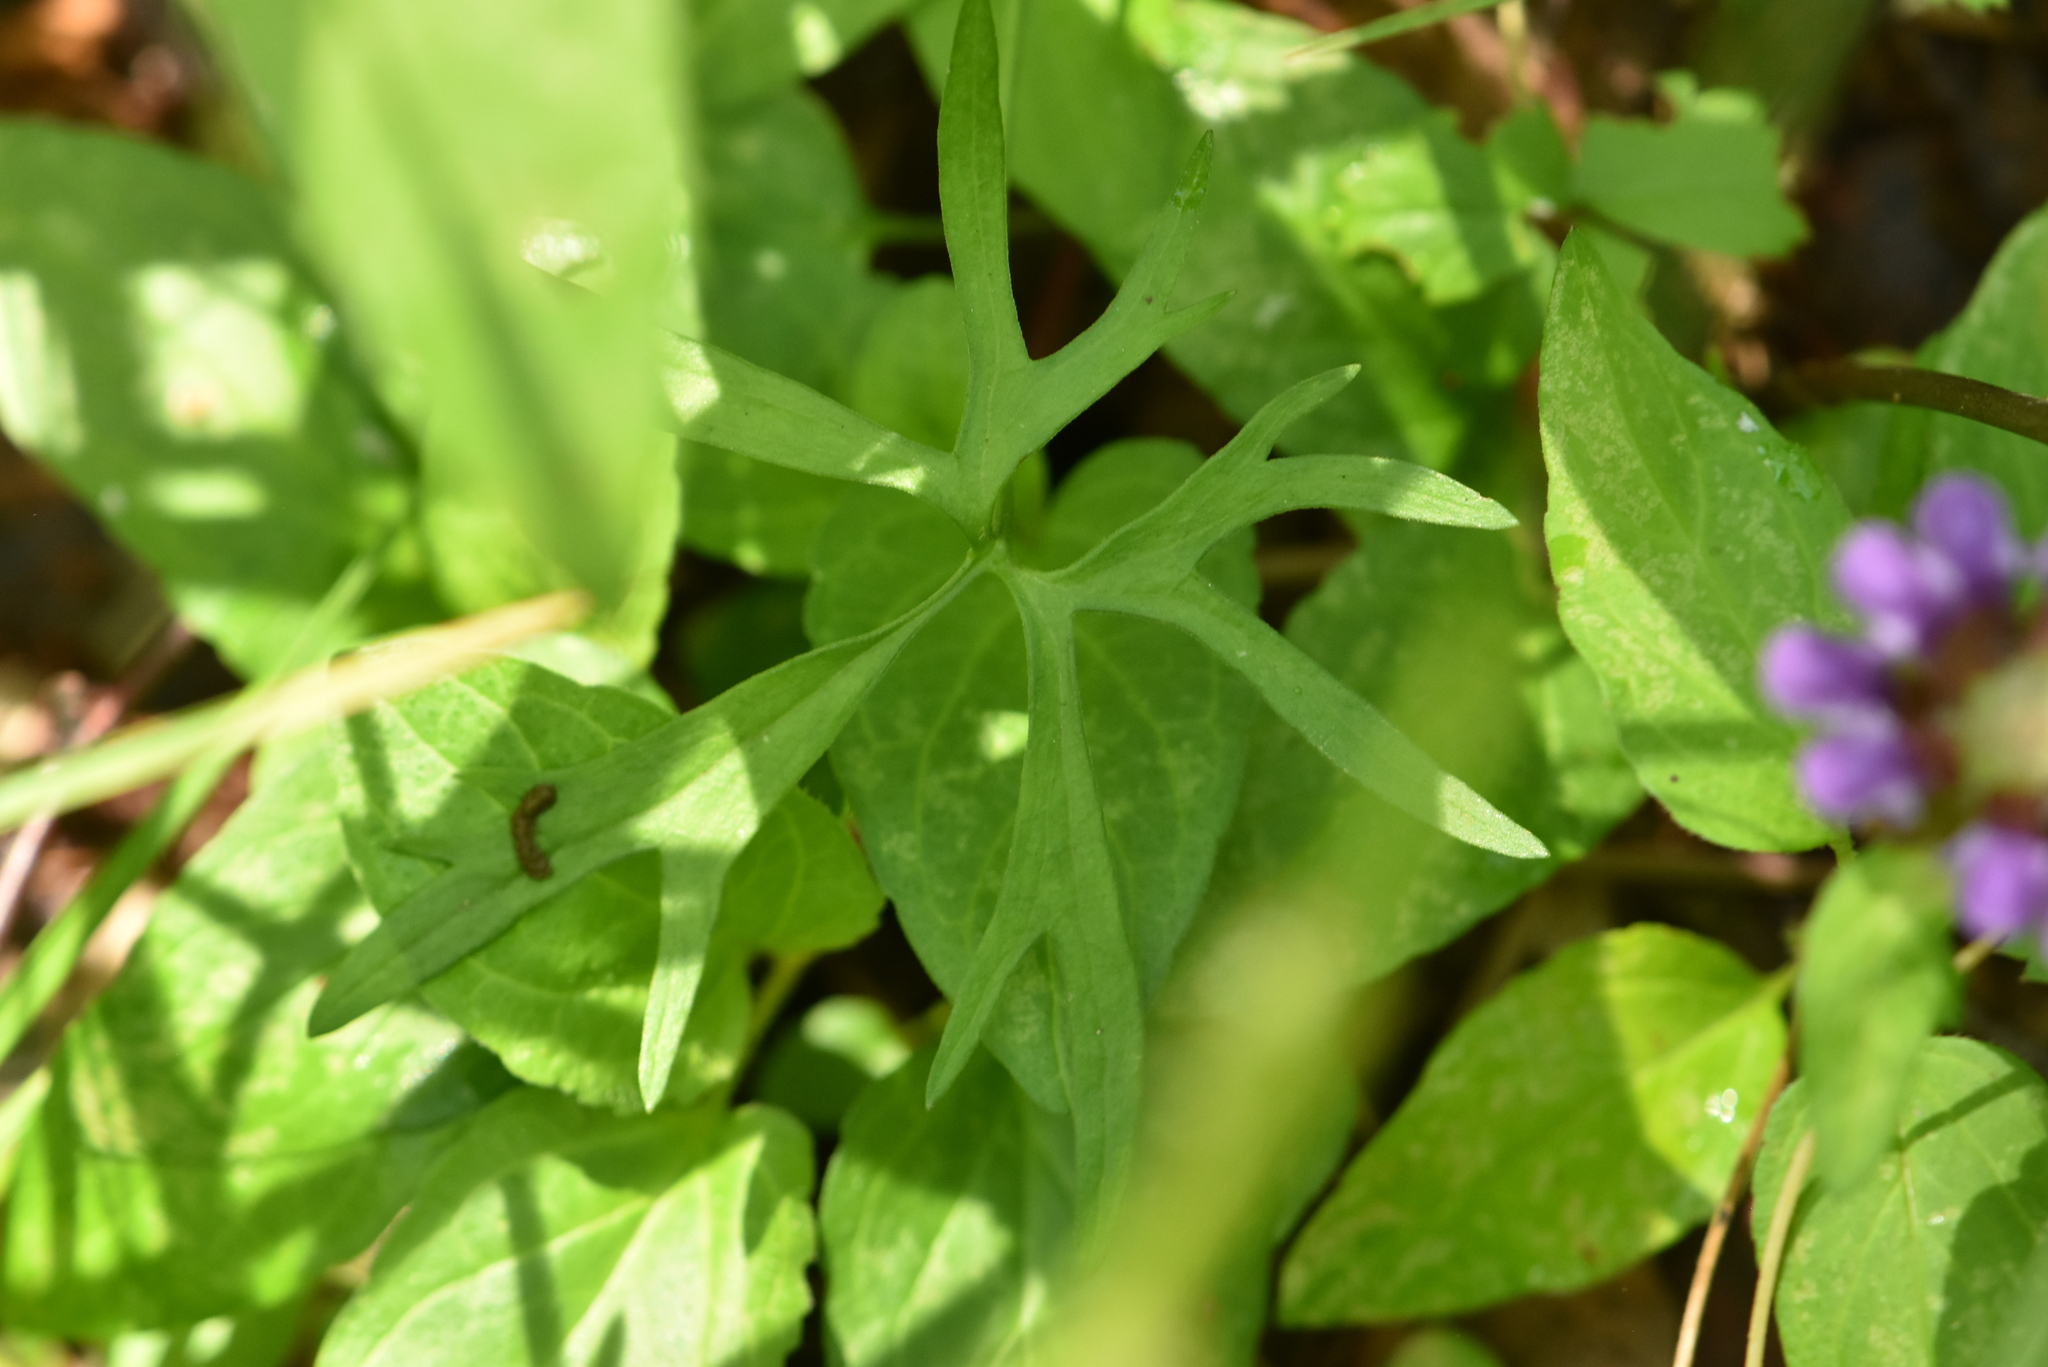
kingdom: Plantae
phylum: Tracheophyta
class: Magnoliopsida
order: Ranunculales
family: Ranunculaceae
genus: Ranunculus
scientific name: Ranunculus auricomus
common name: Goldilocks buttercup
